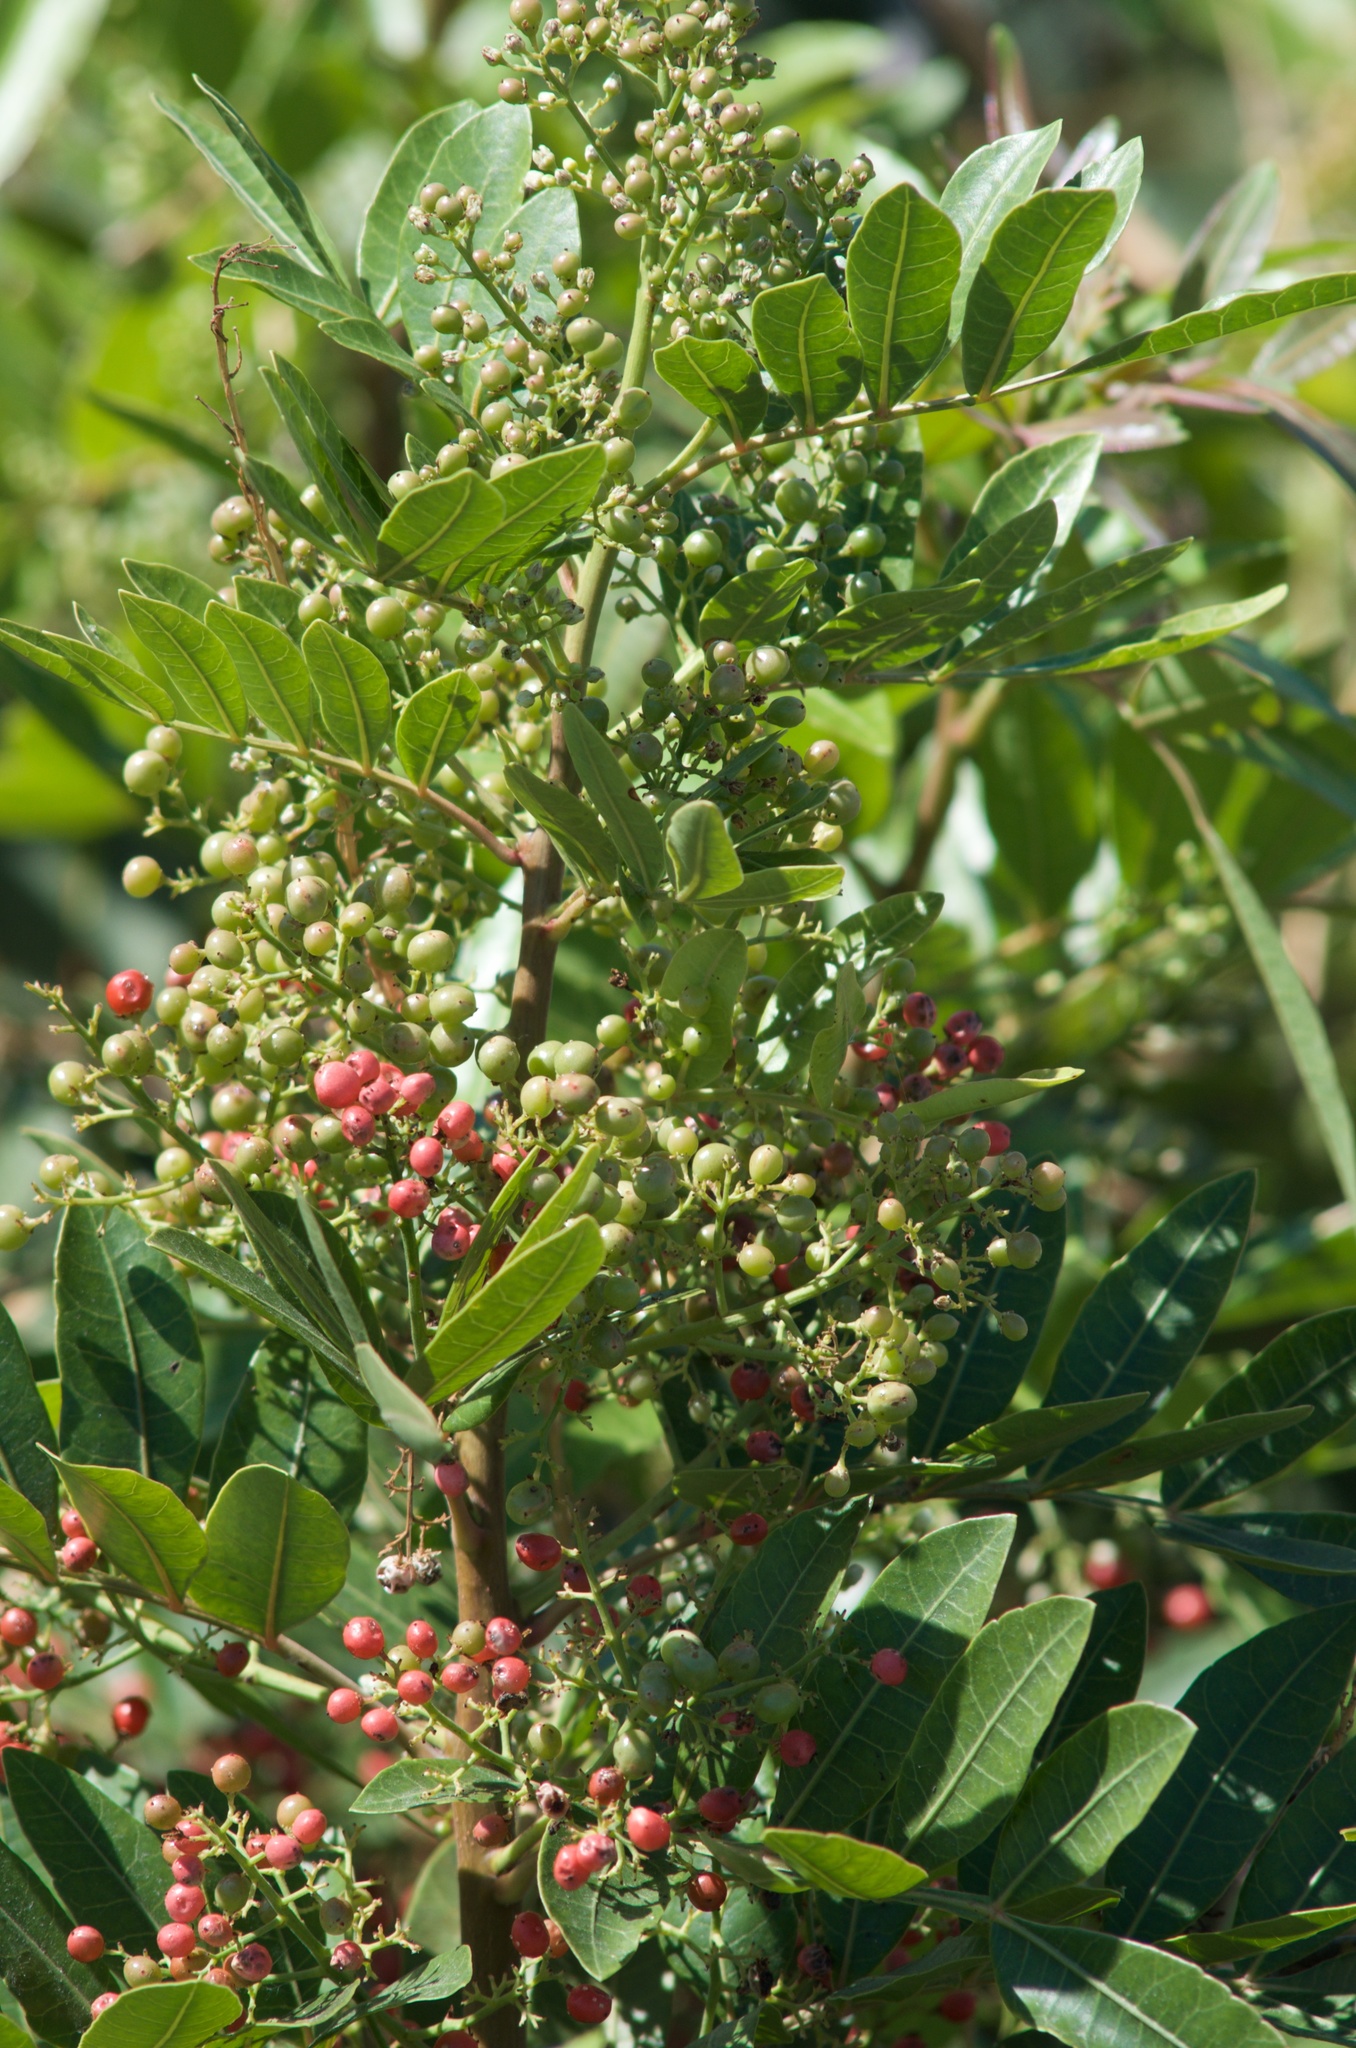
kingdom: Plantae
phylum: Tracheophyta
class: Magnoliopsida
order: Sapindales
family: Anacardiaceae
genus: Schinus
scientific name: Schinus terebinthifolia
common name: Brazilian peppertree
